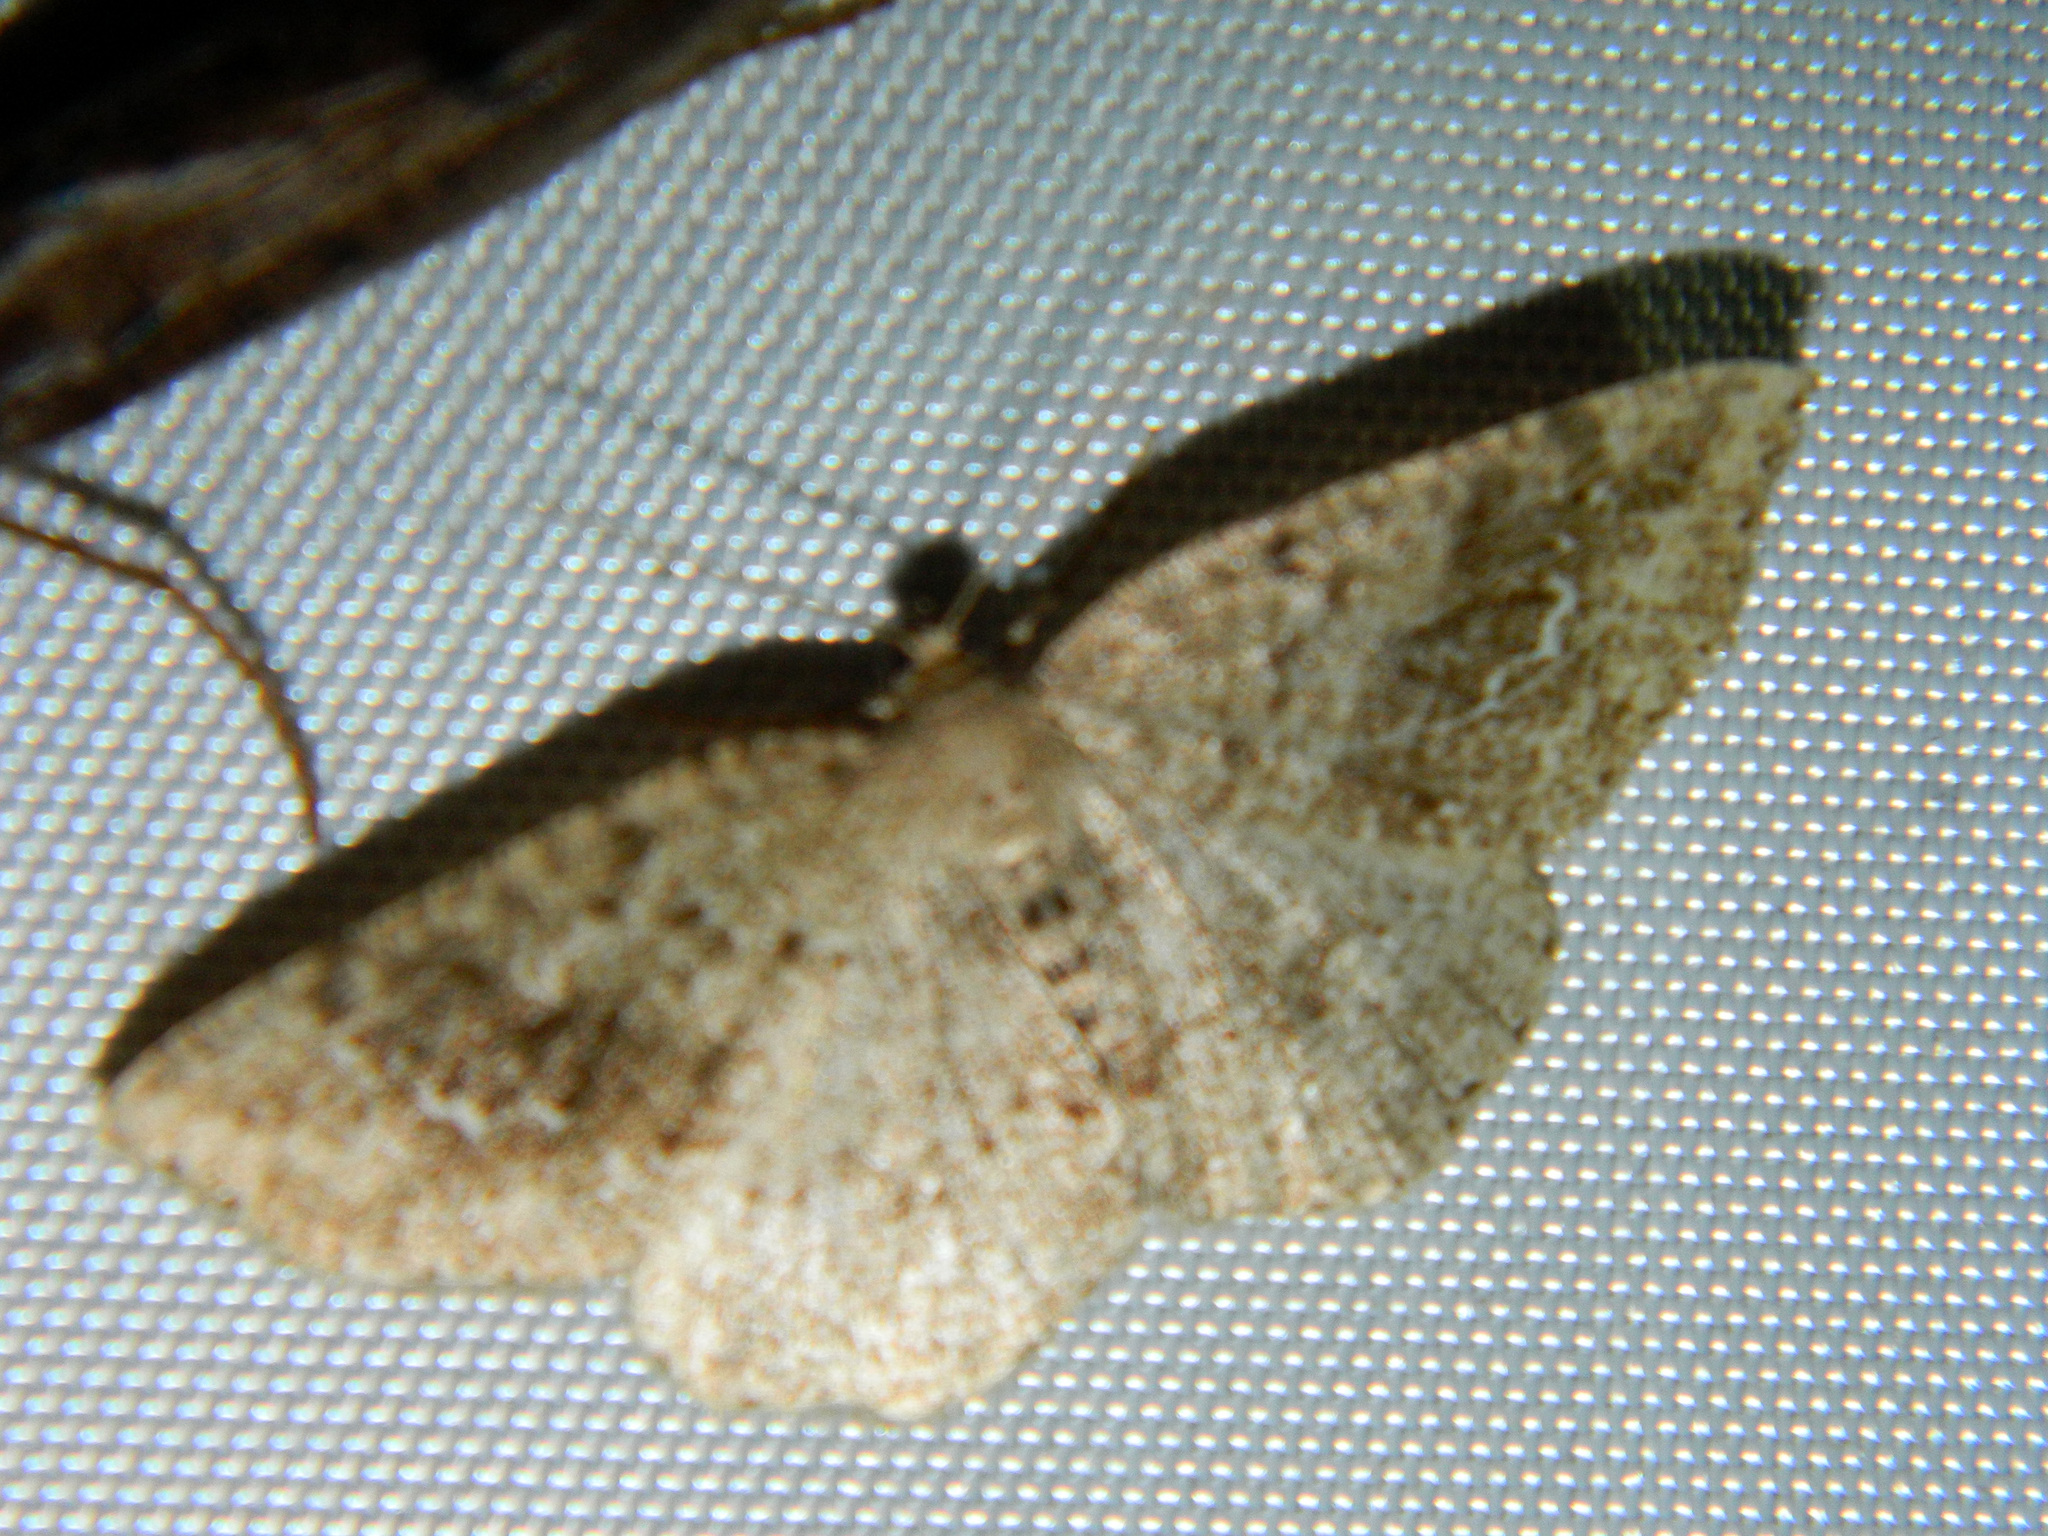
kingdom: Animalia
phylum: Arthropoda
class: Insecta
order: Lepidoptera
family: Geometridae
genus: Homochlodes
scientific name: Homochlodes fritillaria
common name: Pale homochlodes
